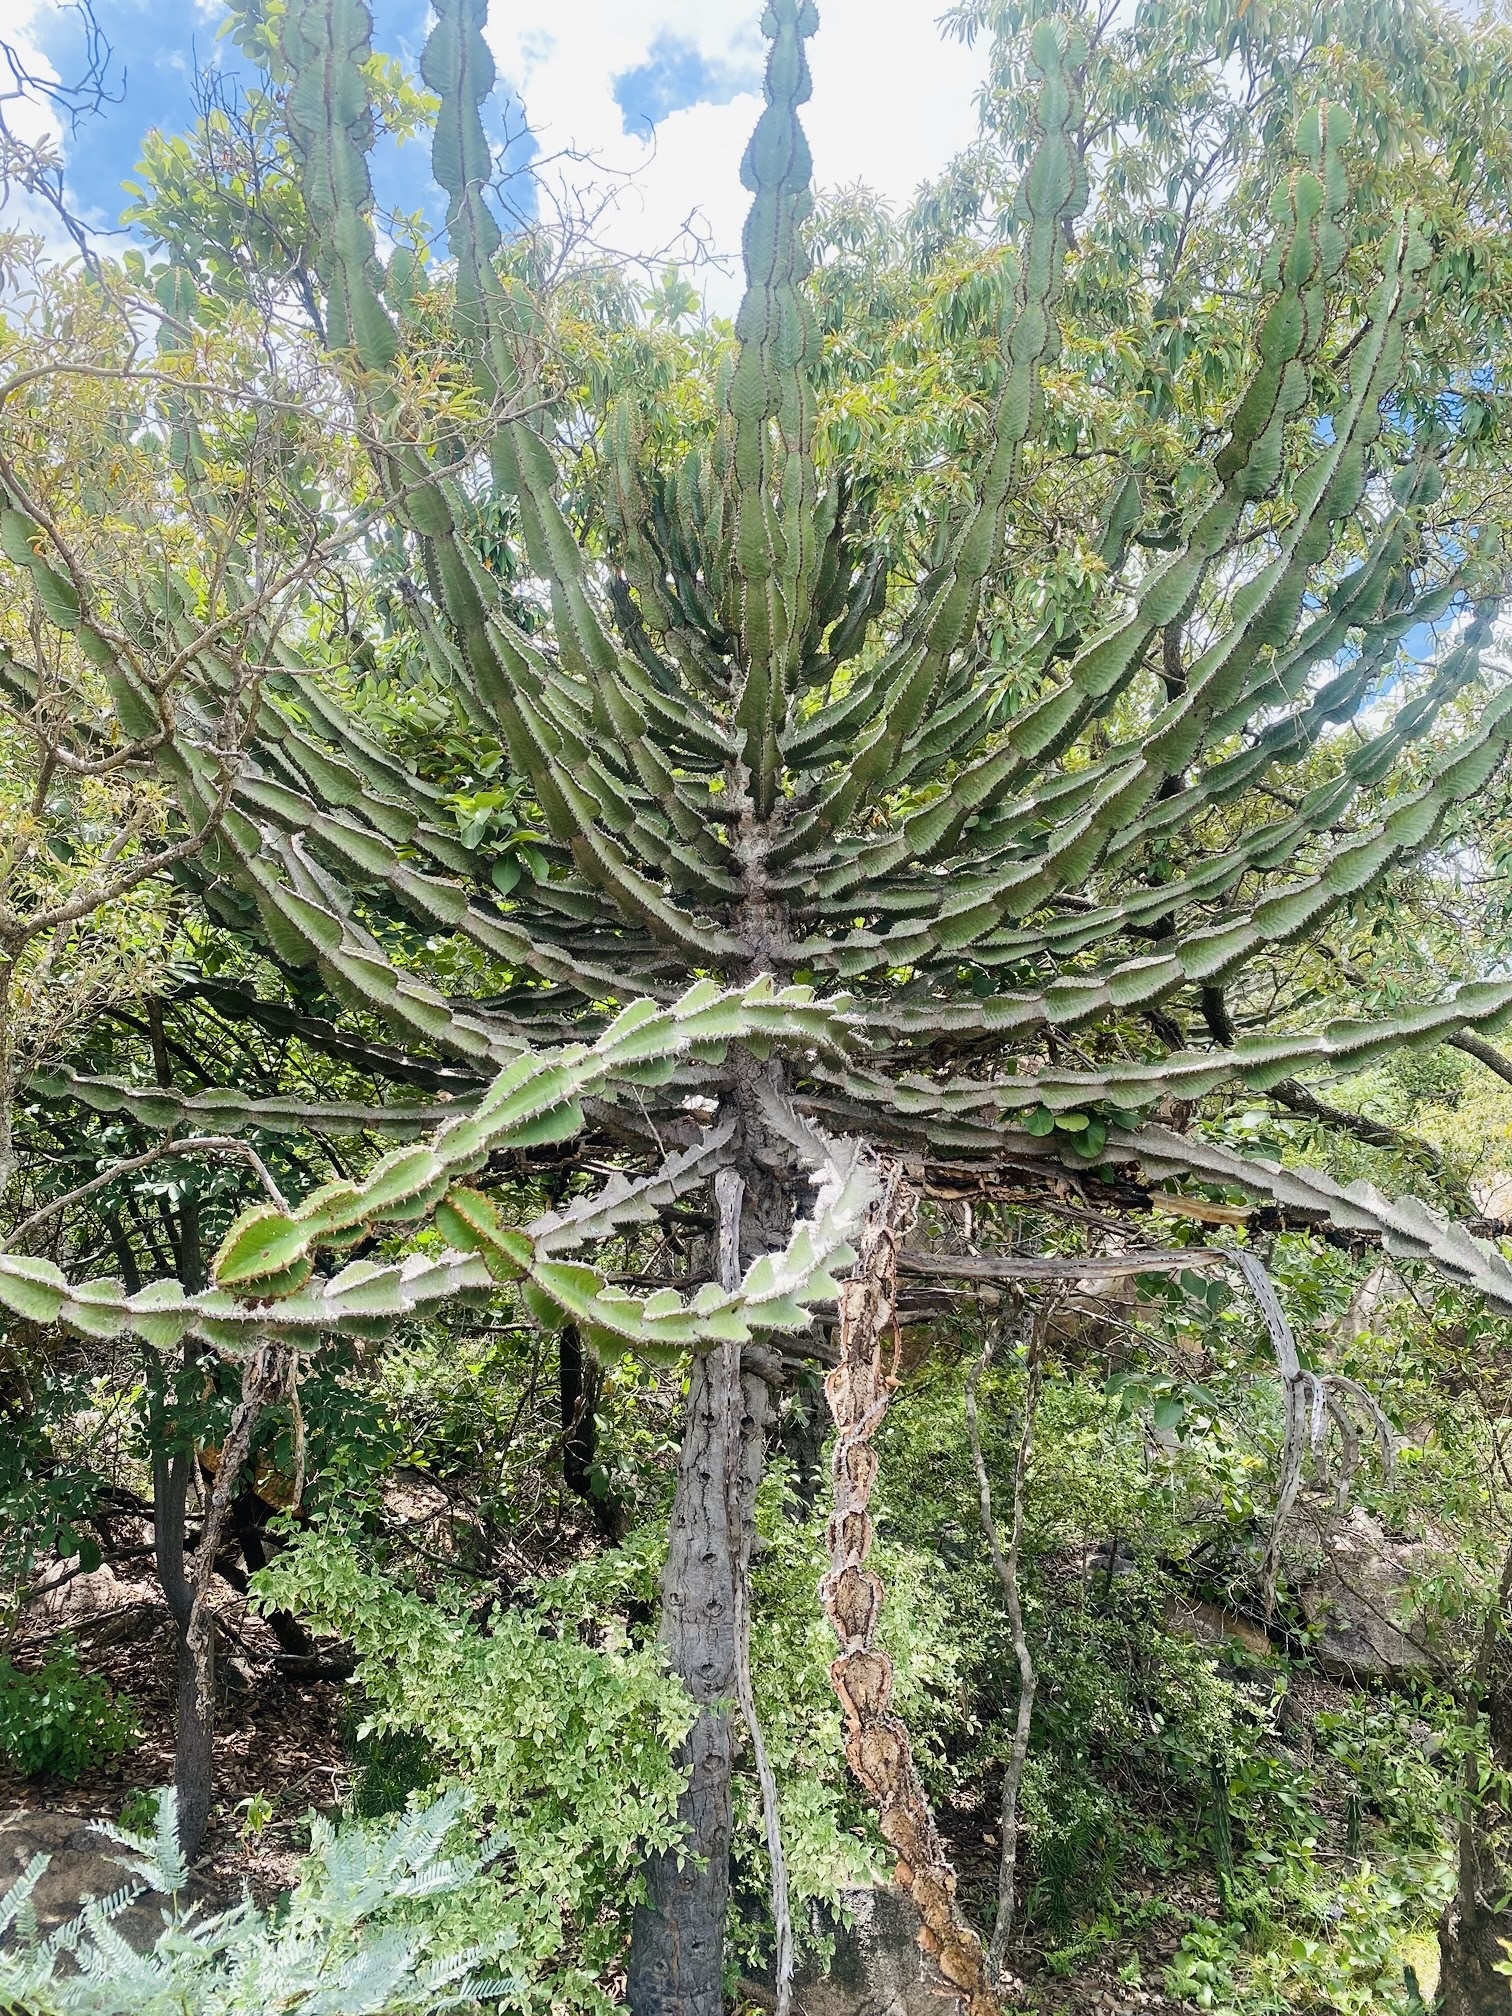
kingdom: Plantae
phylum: Tracheophyta
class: Magnoliopsida
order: Malpighiales
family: Euphorbiaceae
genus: Euphorbia
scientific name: Euphorbia cooperi
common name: Candelabra tree
